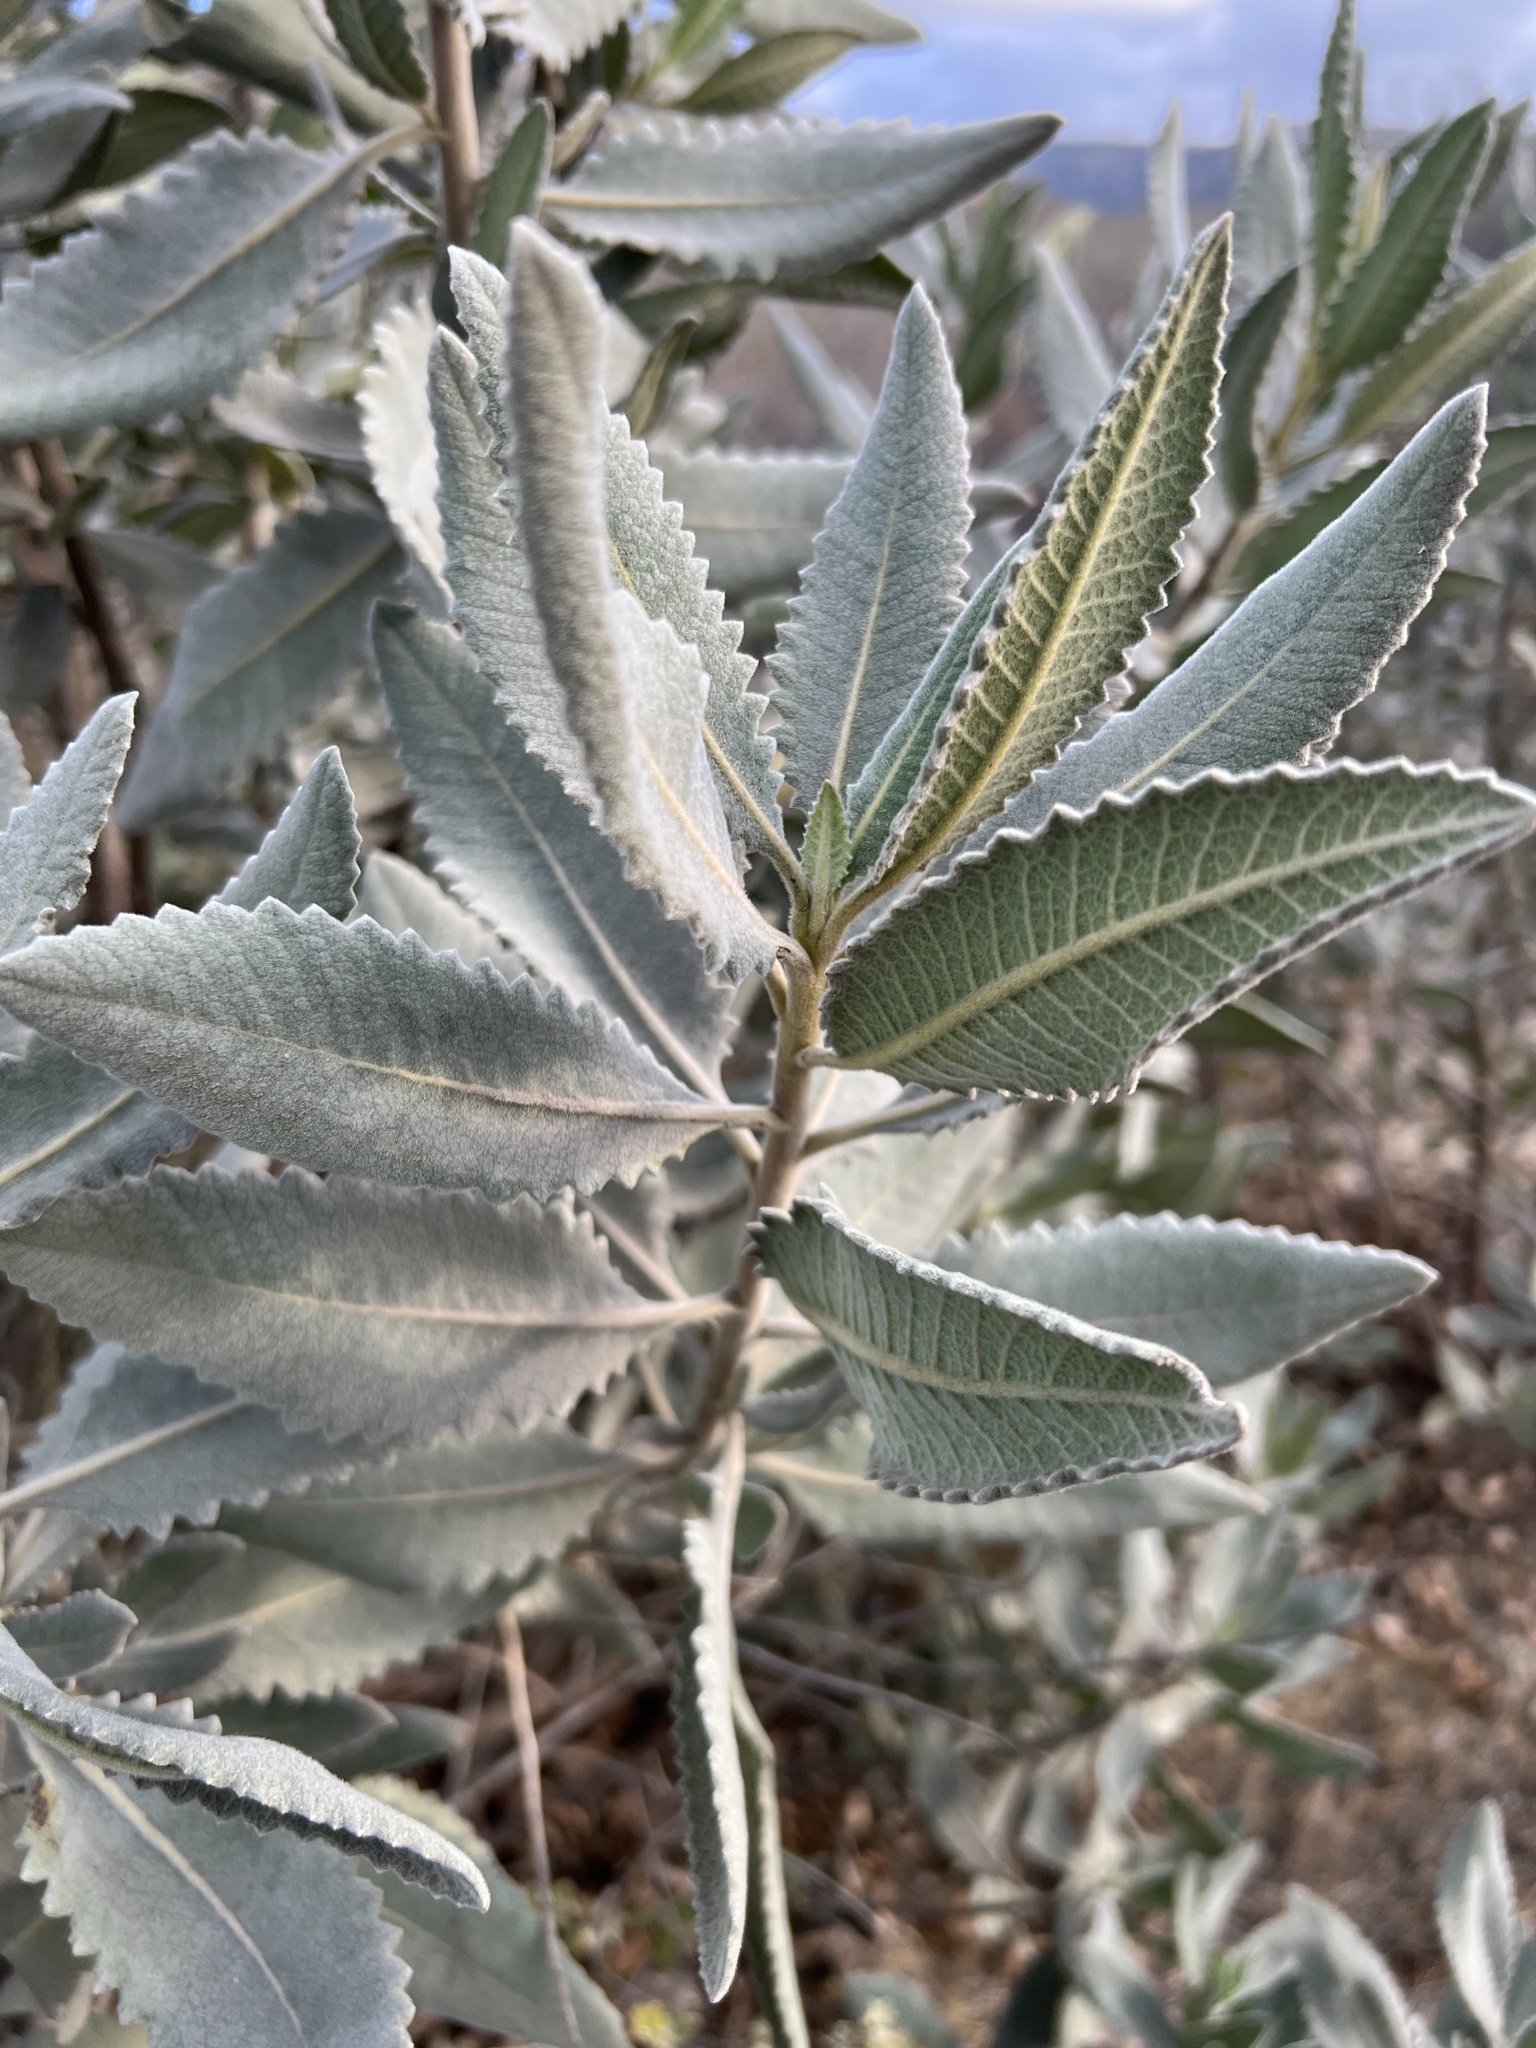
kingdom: Plantae
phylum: Tracheophyta
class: Magnoliopsida
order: Boraginales
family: Namaceae
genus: Eriodictyon
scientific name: Eriodictyon crassifolium
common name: Thick-leaf yerba-santa
